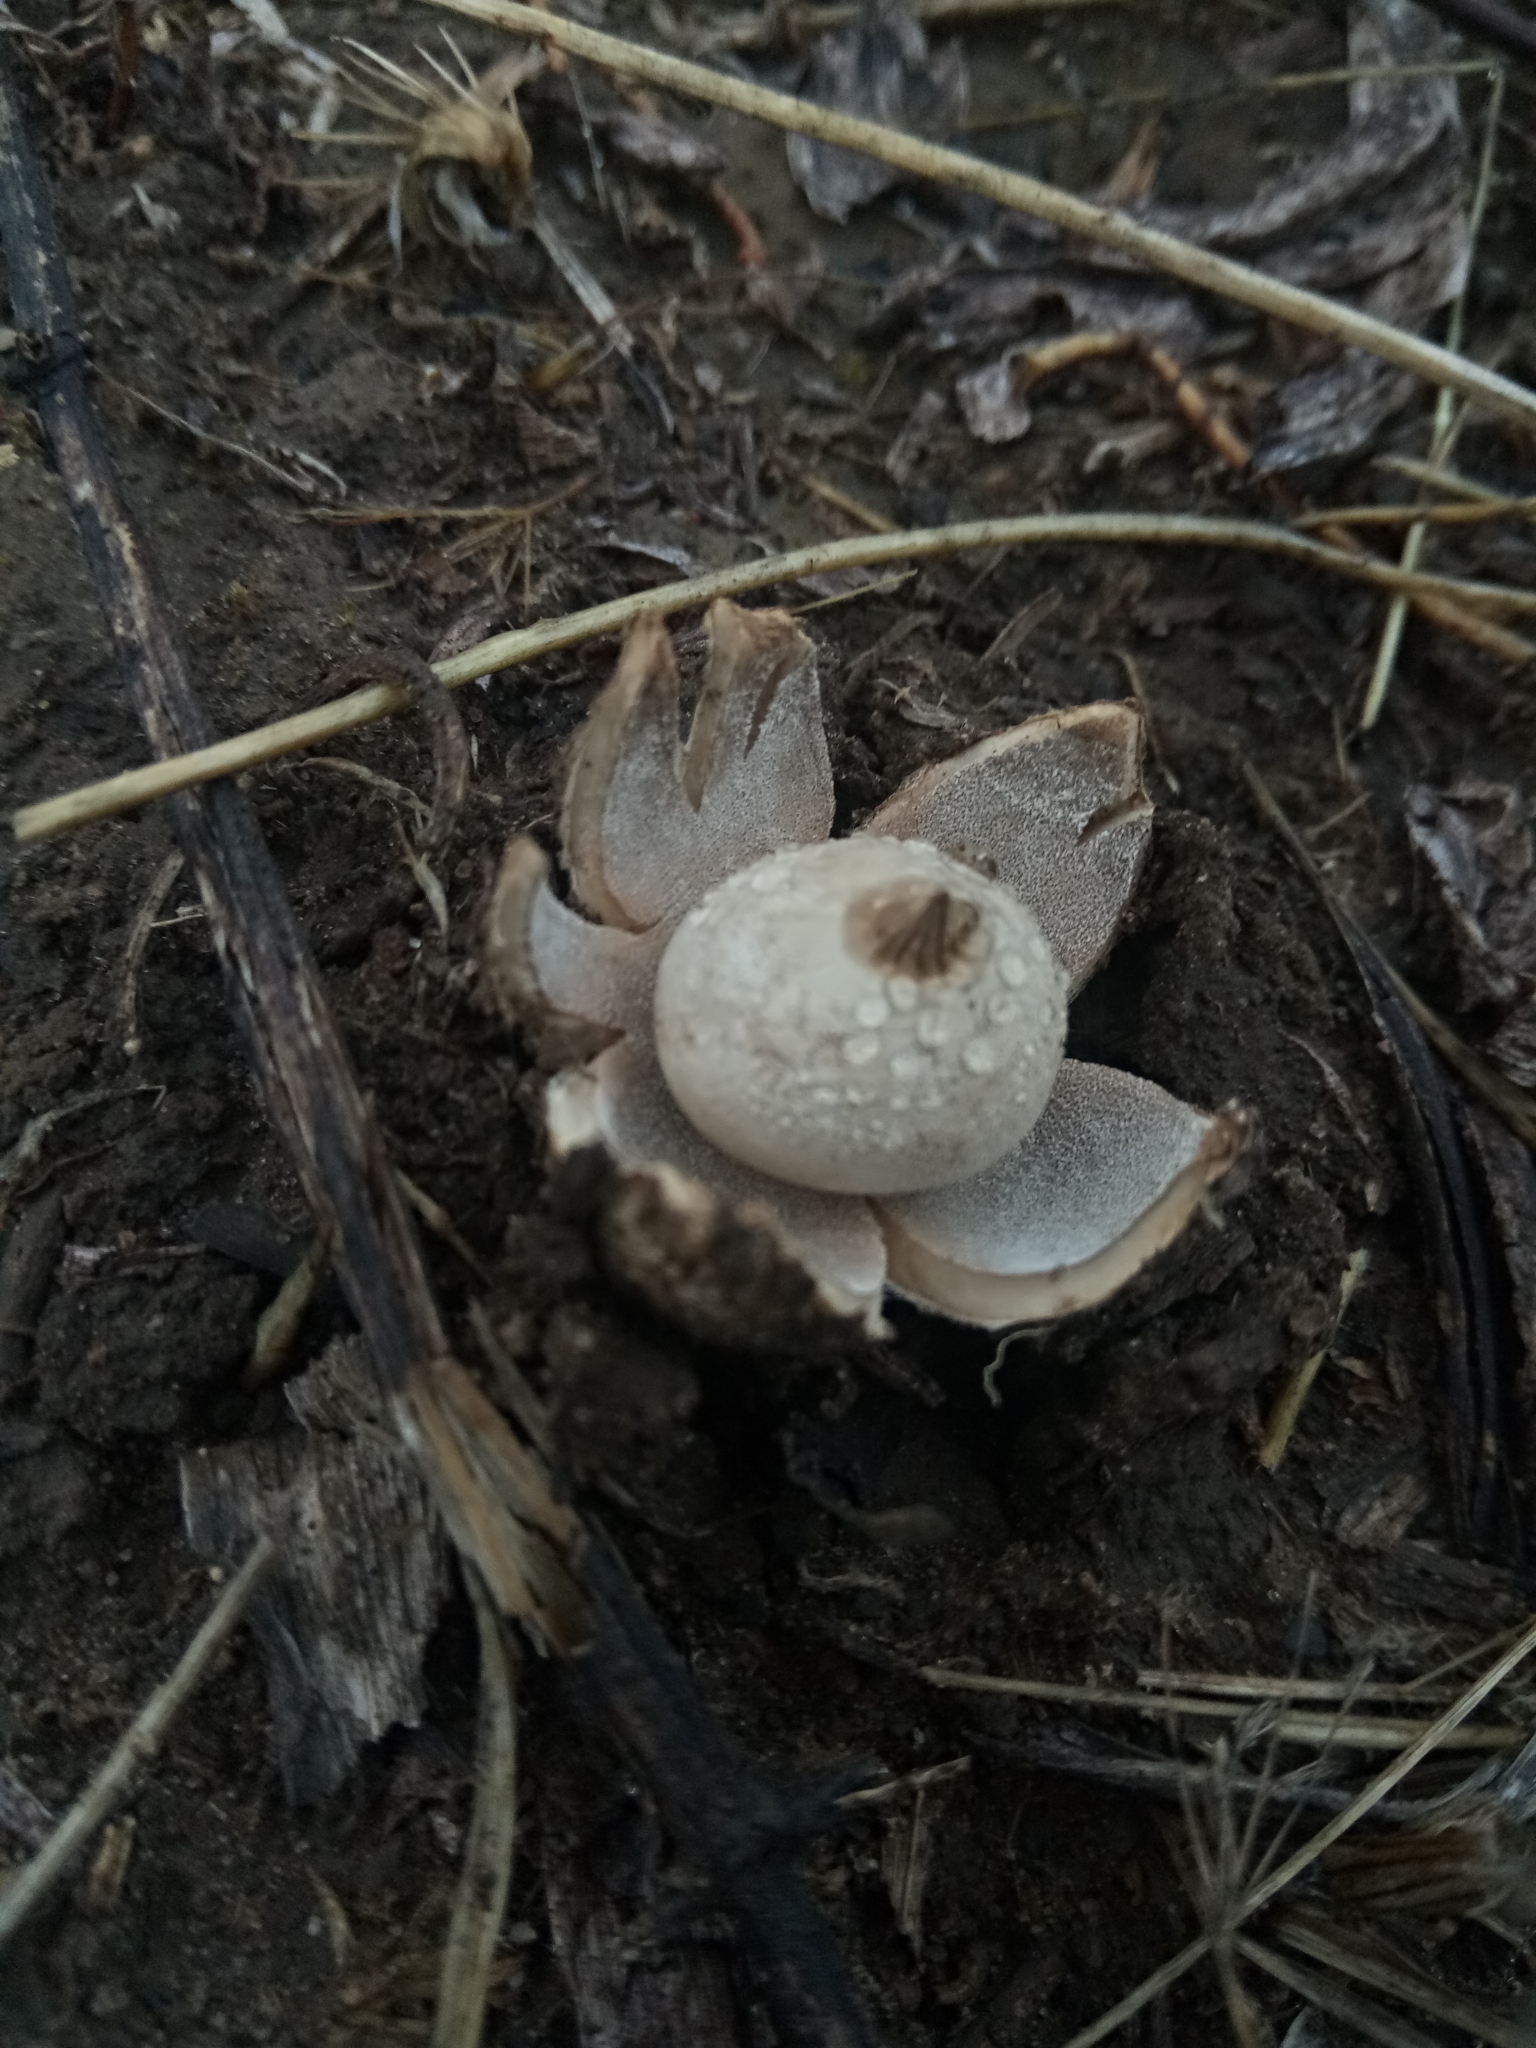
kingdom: Fungi
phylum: Basidiomycota
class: Agaricomycetes
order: Geastrales
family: Geastraceae
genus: Geastrum
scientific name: Geastrum saccatum
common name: Rounded earthstar
